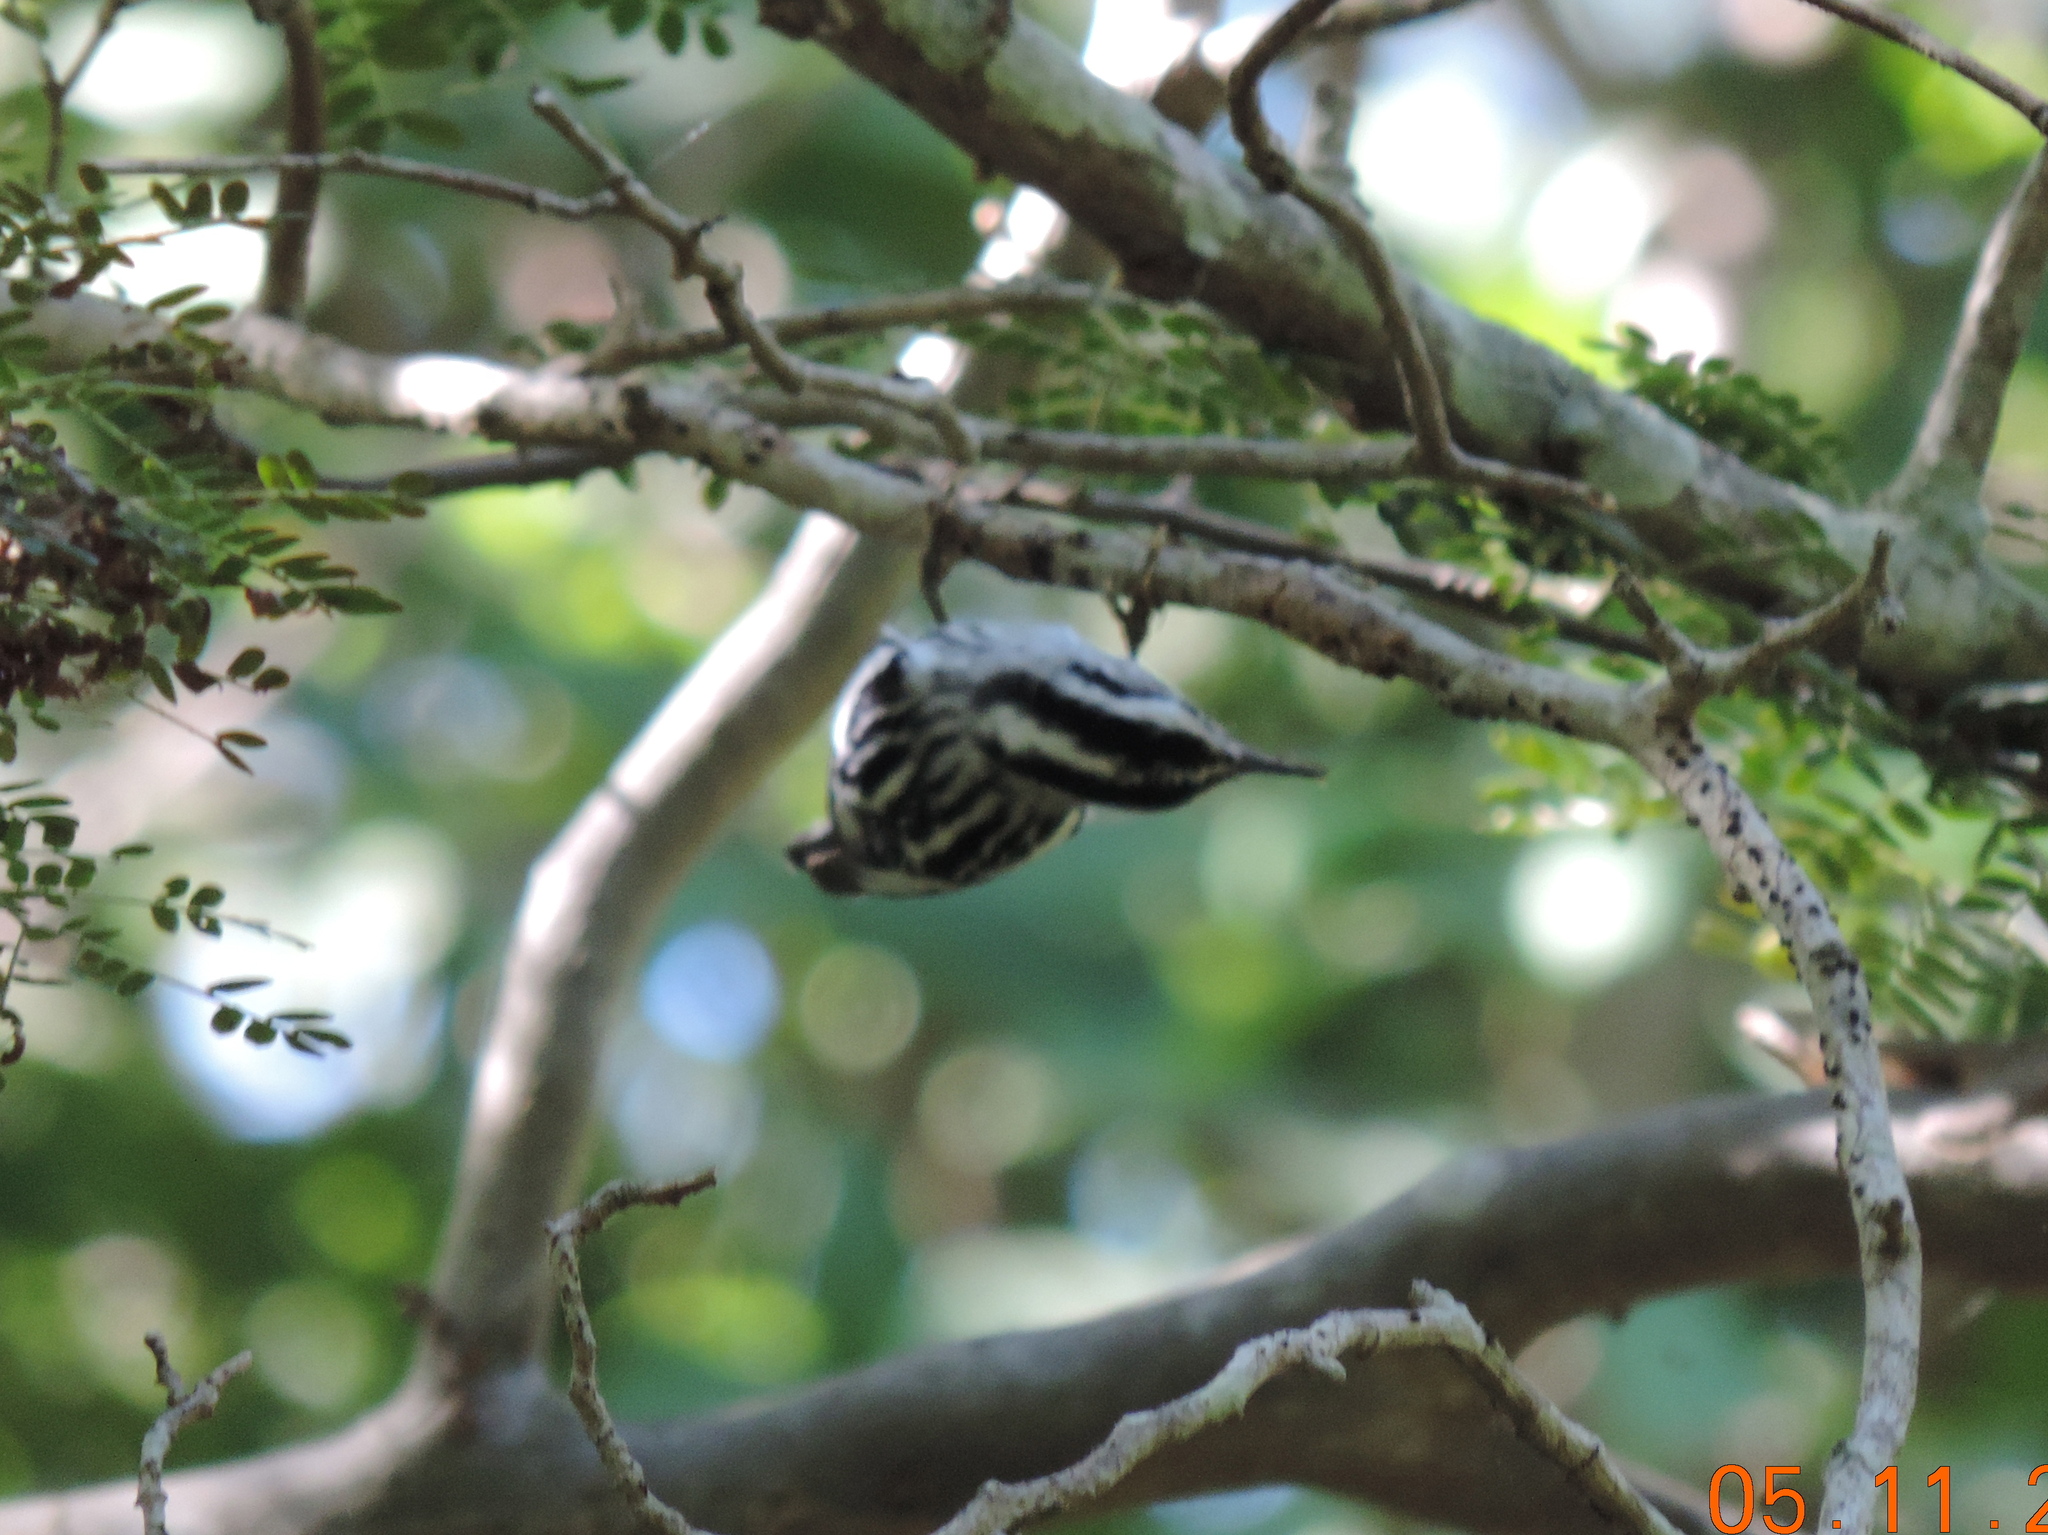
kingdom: Animalia
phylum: Chordata
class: Aves
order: Passeriformes
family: Parulidae
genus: Mniotilta
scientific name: Mniotilta varia
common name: Black-and-white warbler
